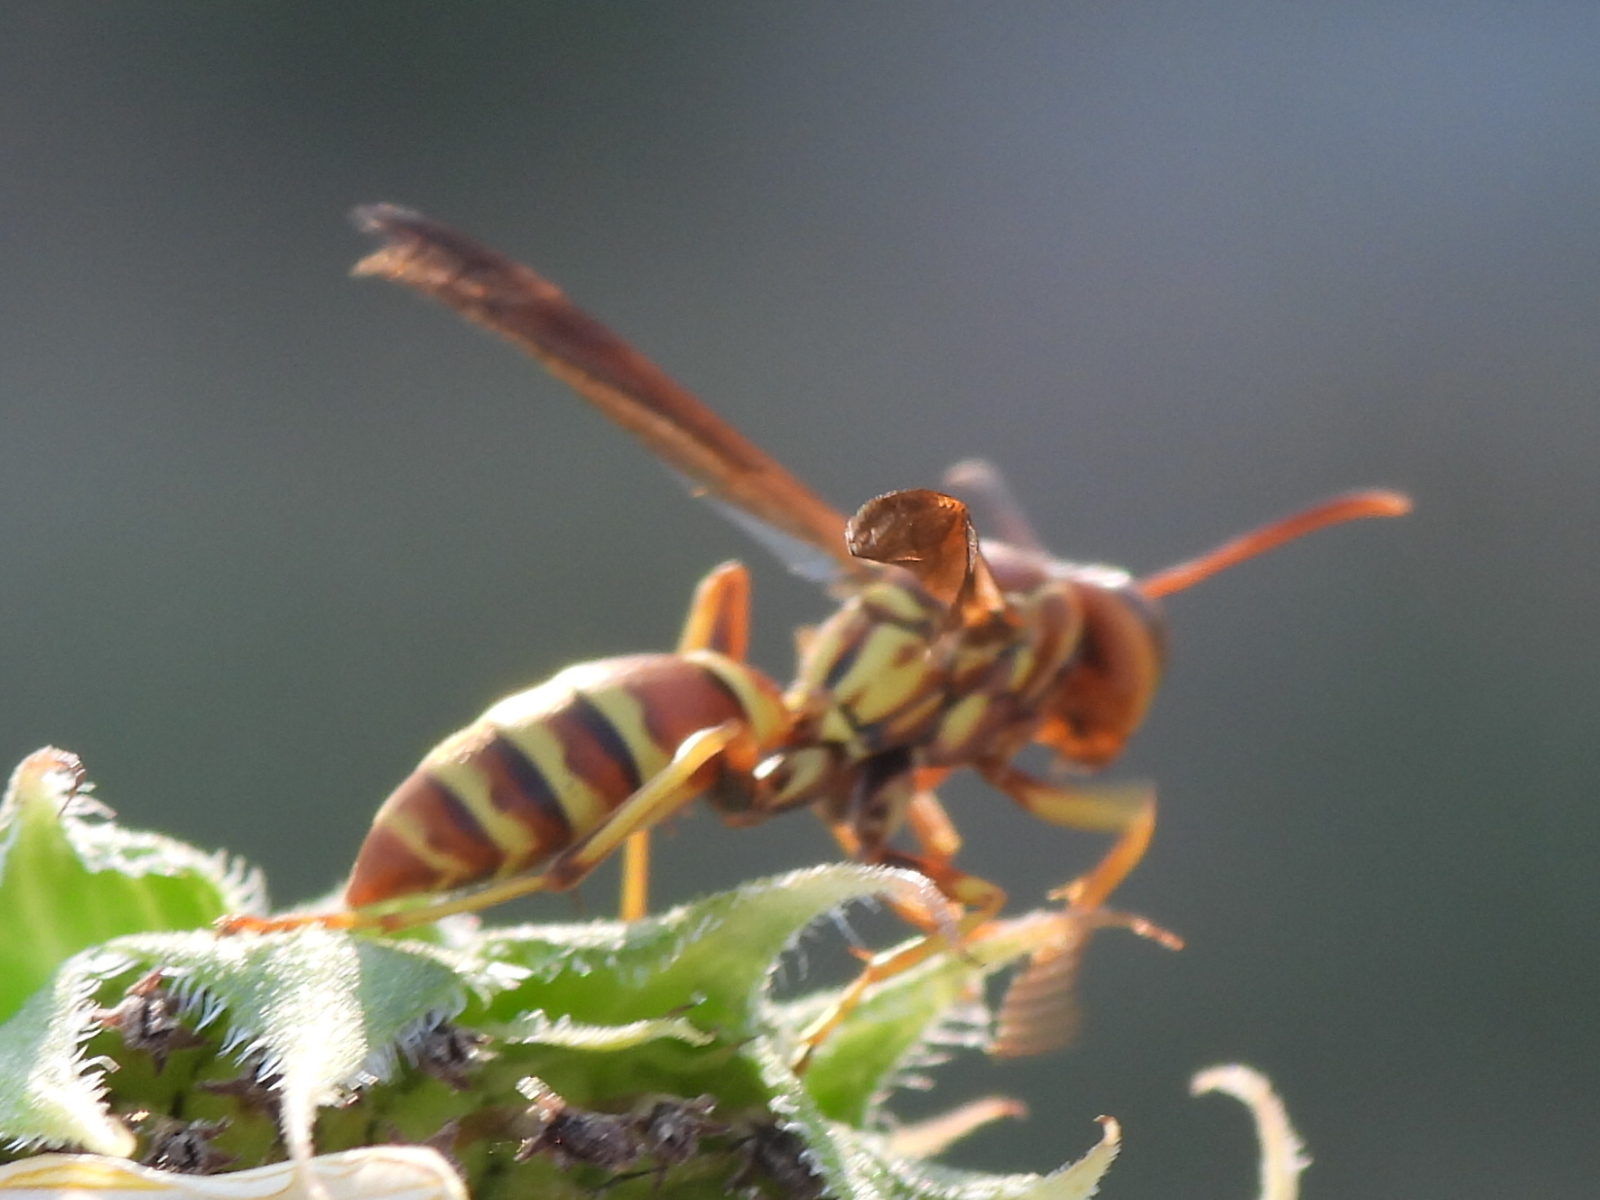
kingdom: Animalia
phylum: Arthropoda
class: Insecta
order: Hymenoptera
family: Eumenidae
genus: Polistes
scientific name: Polistes dorsalis
